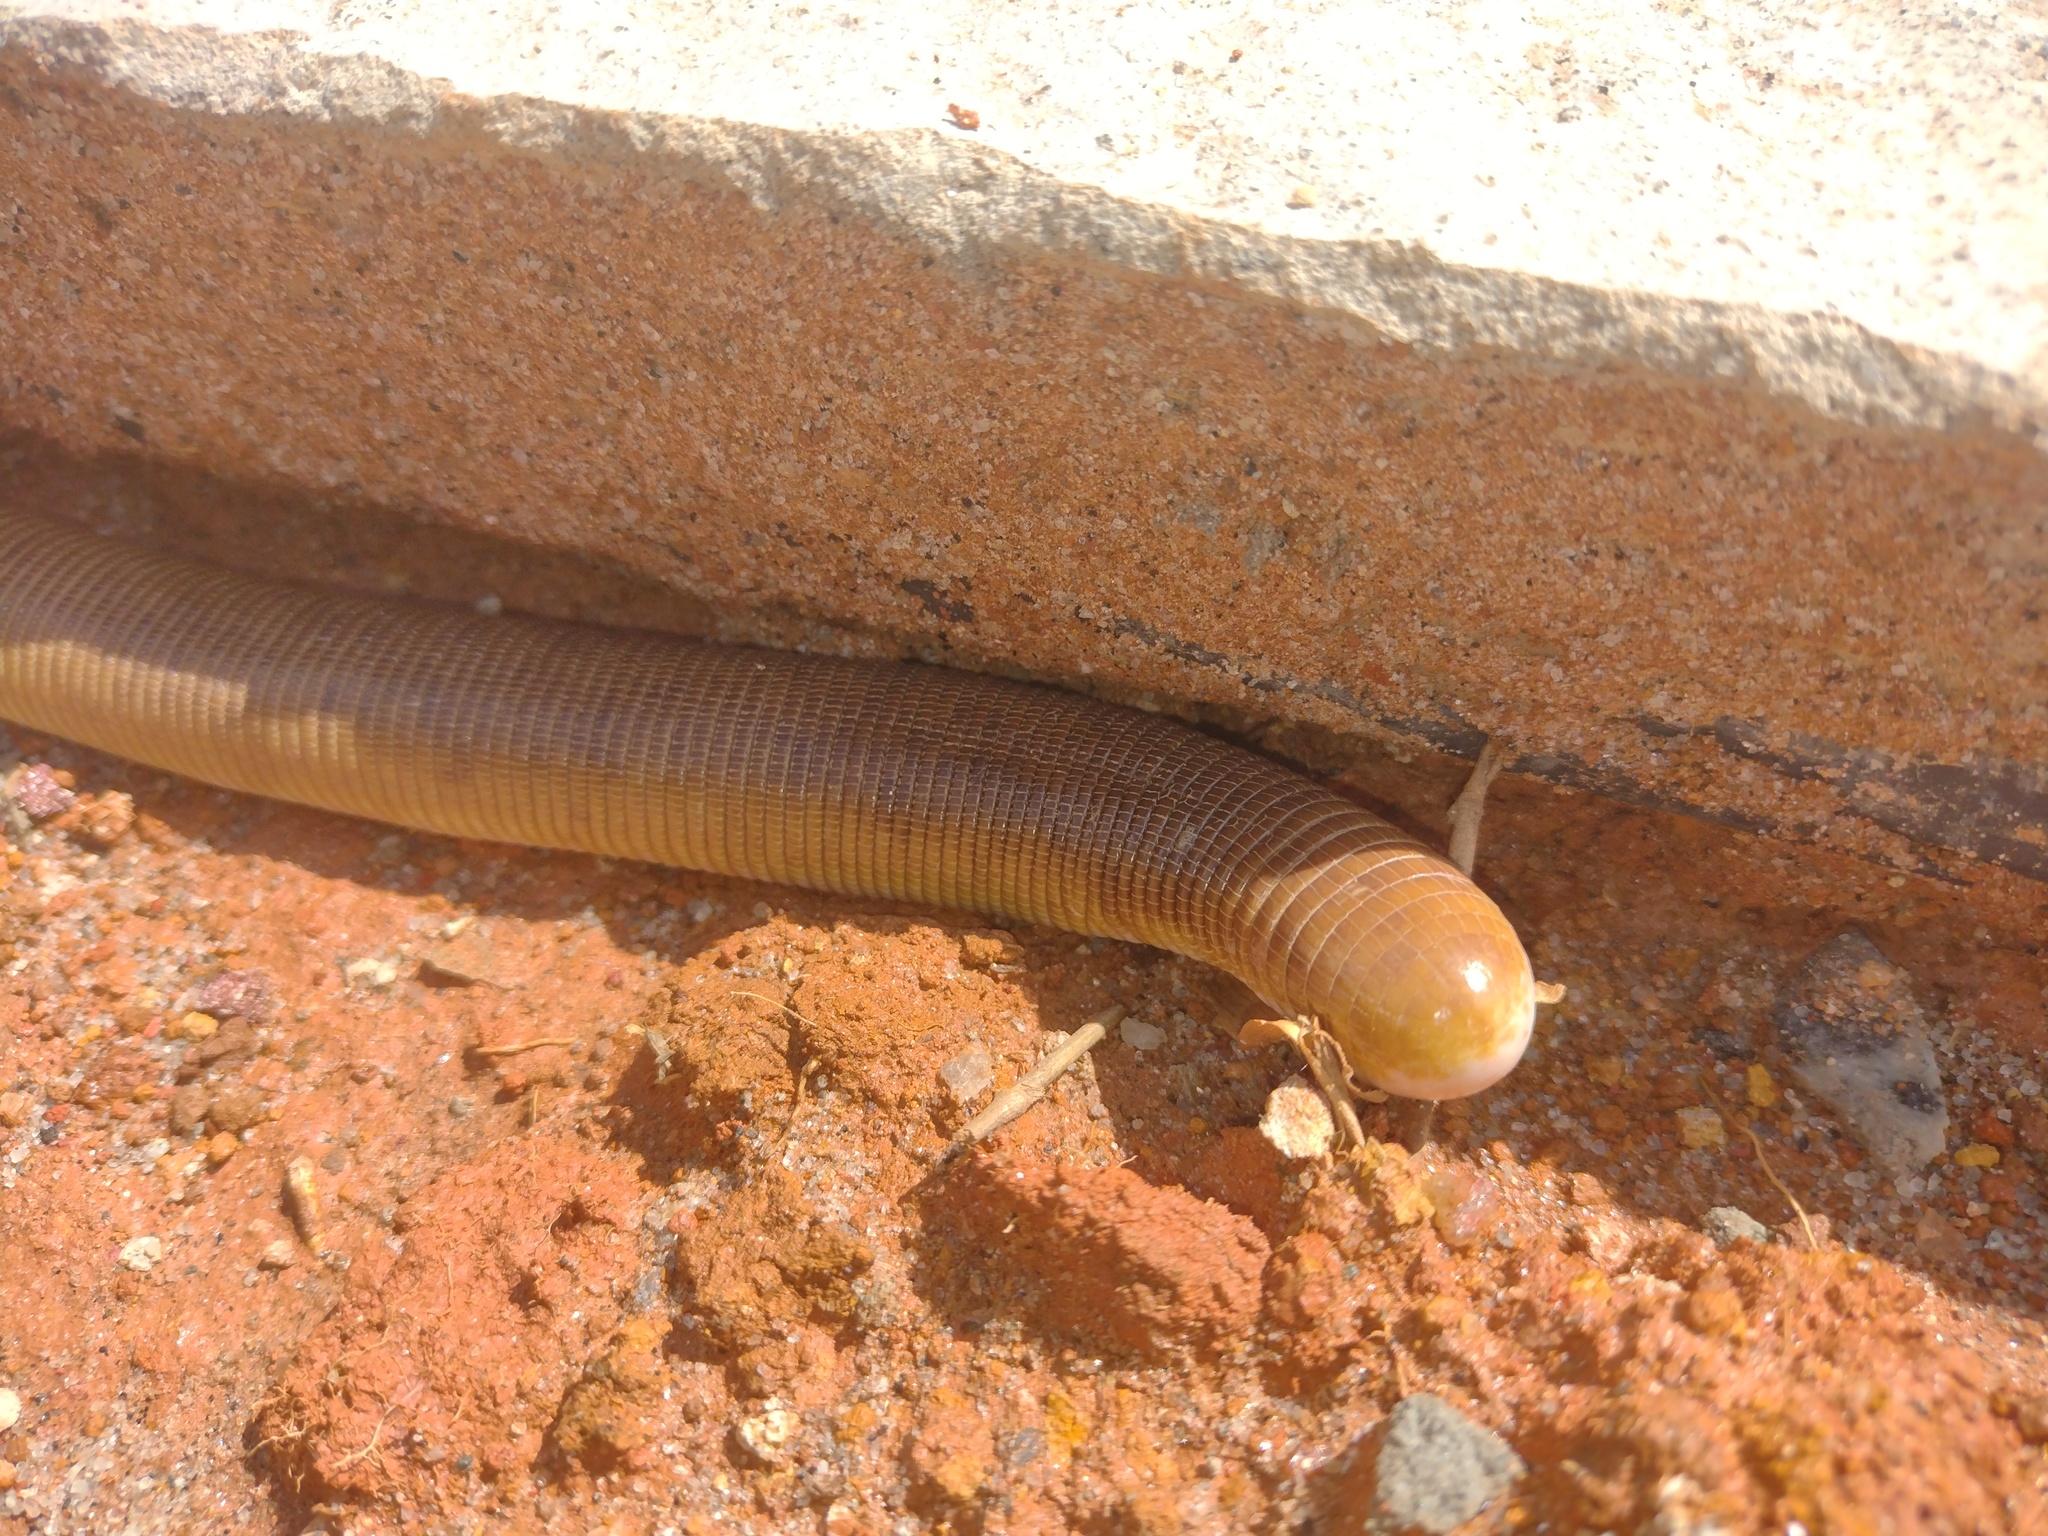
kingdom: Animalia
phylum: Chordata
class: Squamata
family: Amphisbaenidae
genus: Amphisbaena
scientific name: Amphisbaena alba
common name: Red worm lizard
